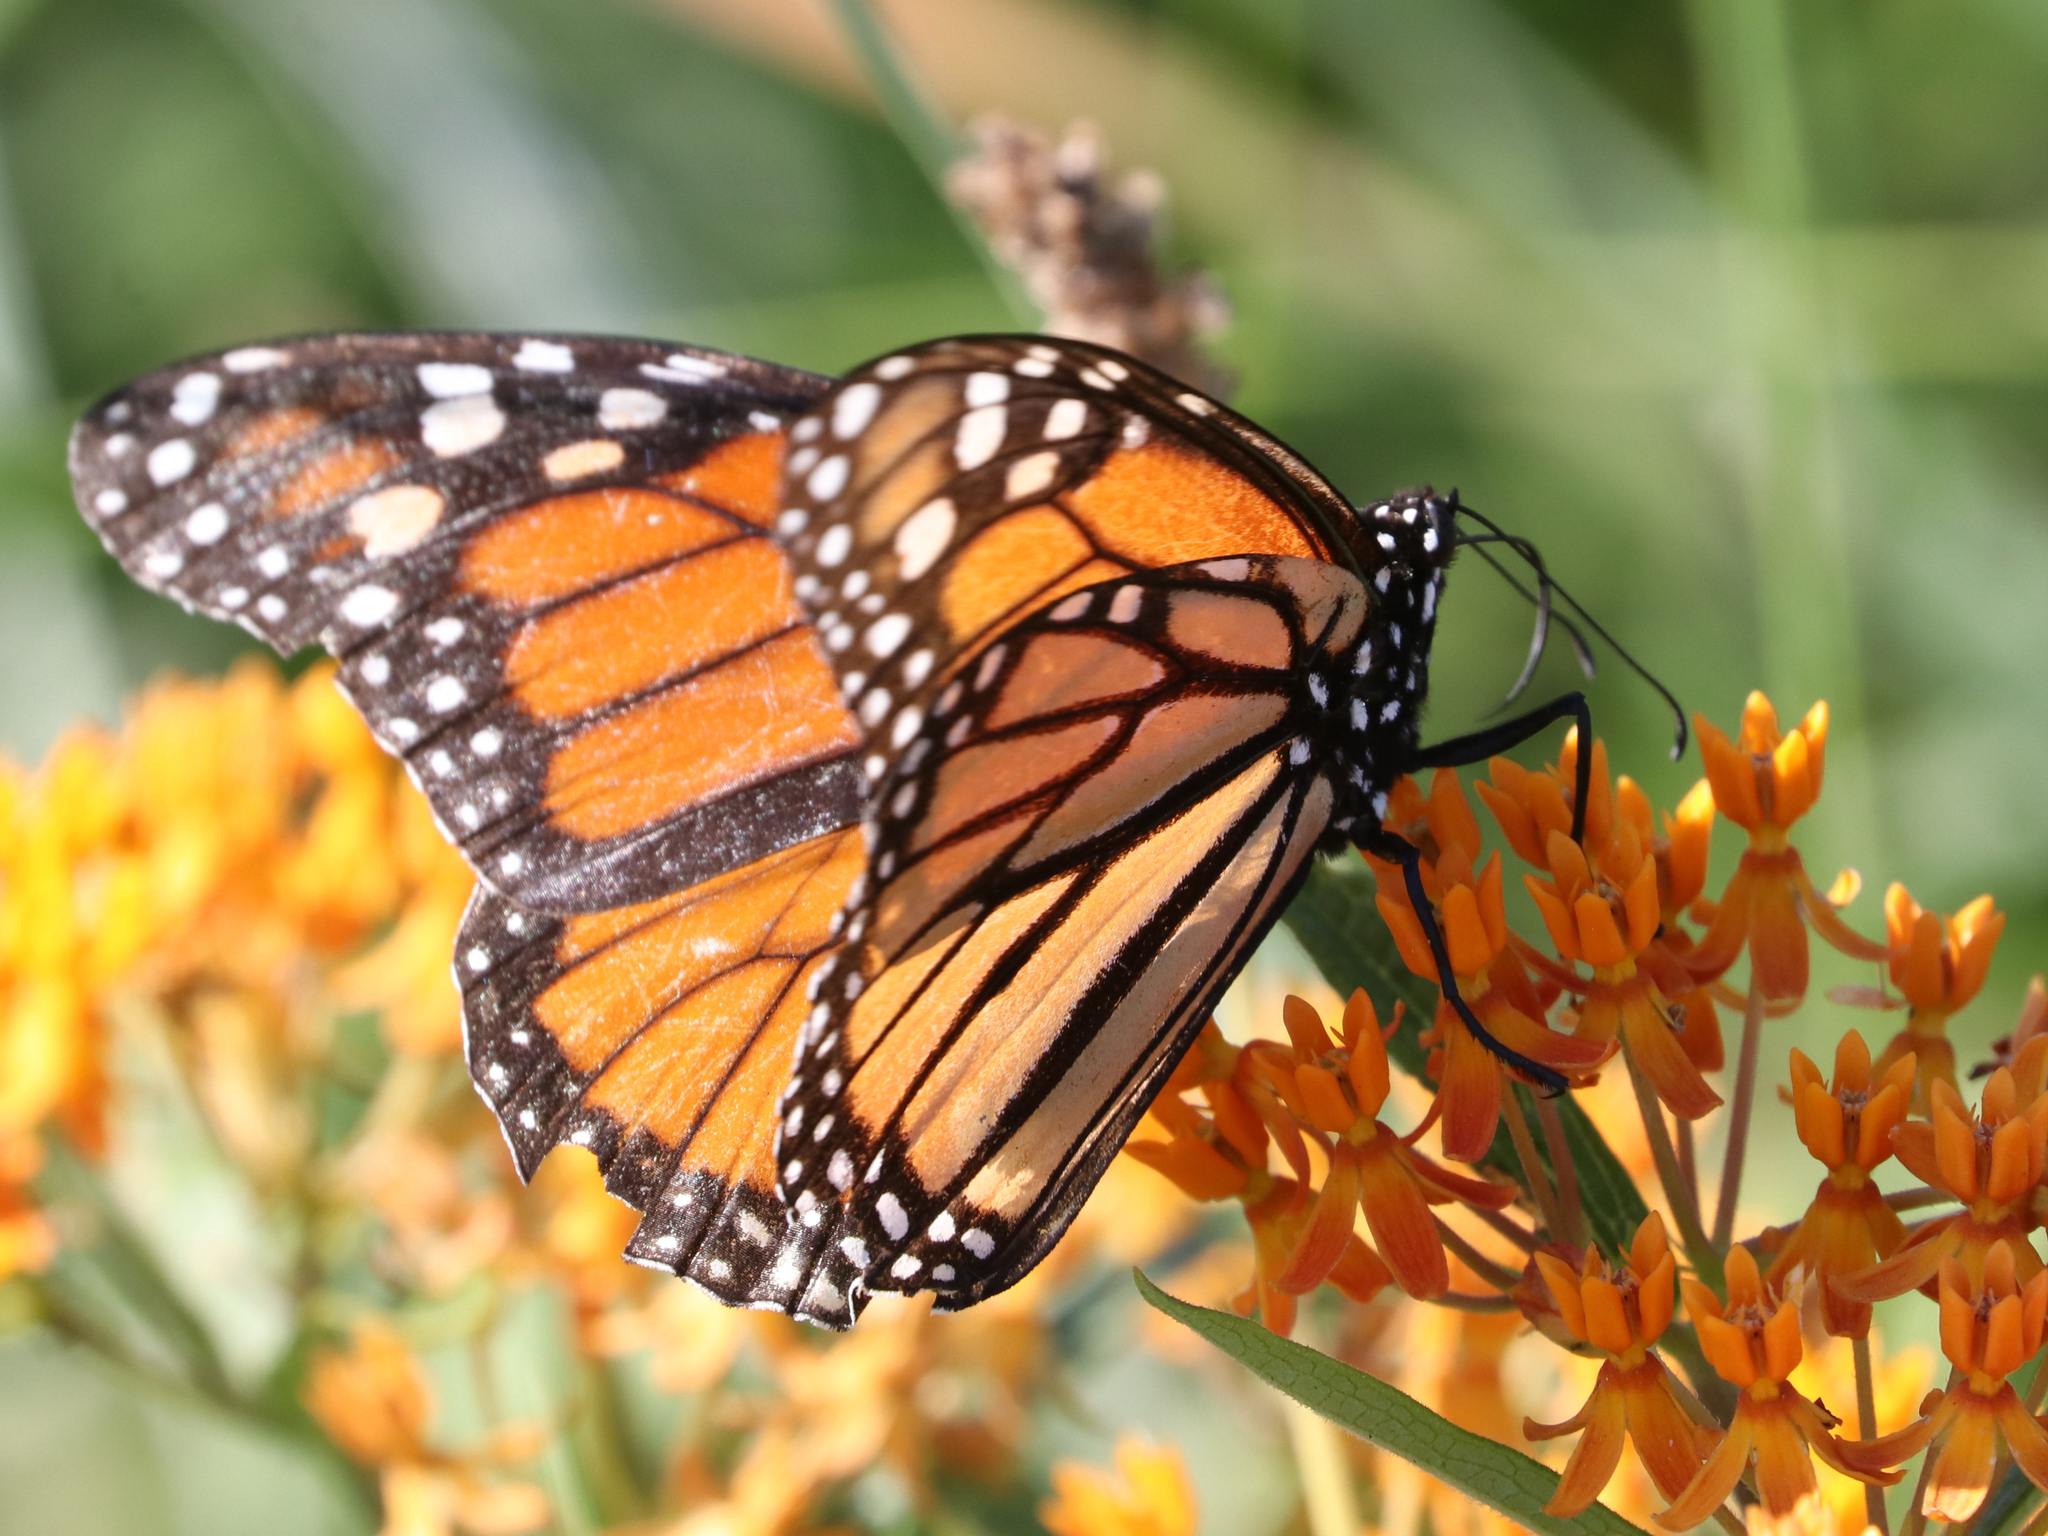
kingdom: Animalia
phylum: Arthropoda
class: Insecta
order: Lepidoptera
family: Nymphalidae
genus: Danaus
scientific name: Danaus plexippus
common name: Monarch
